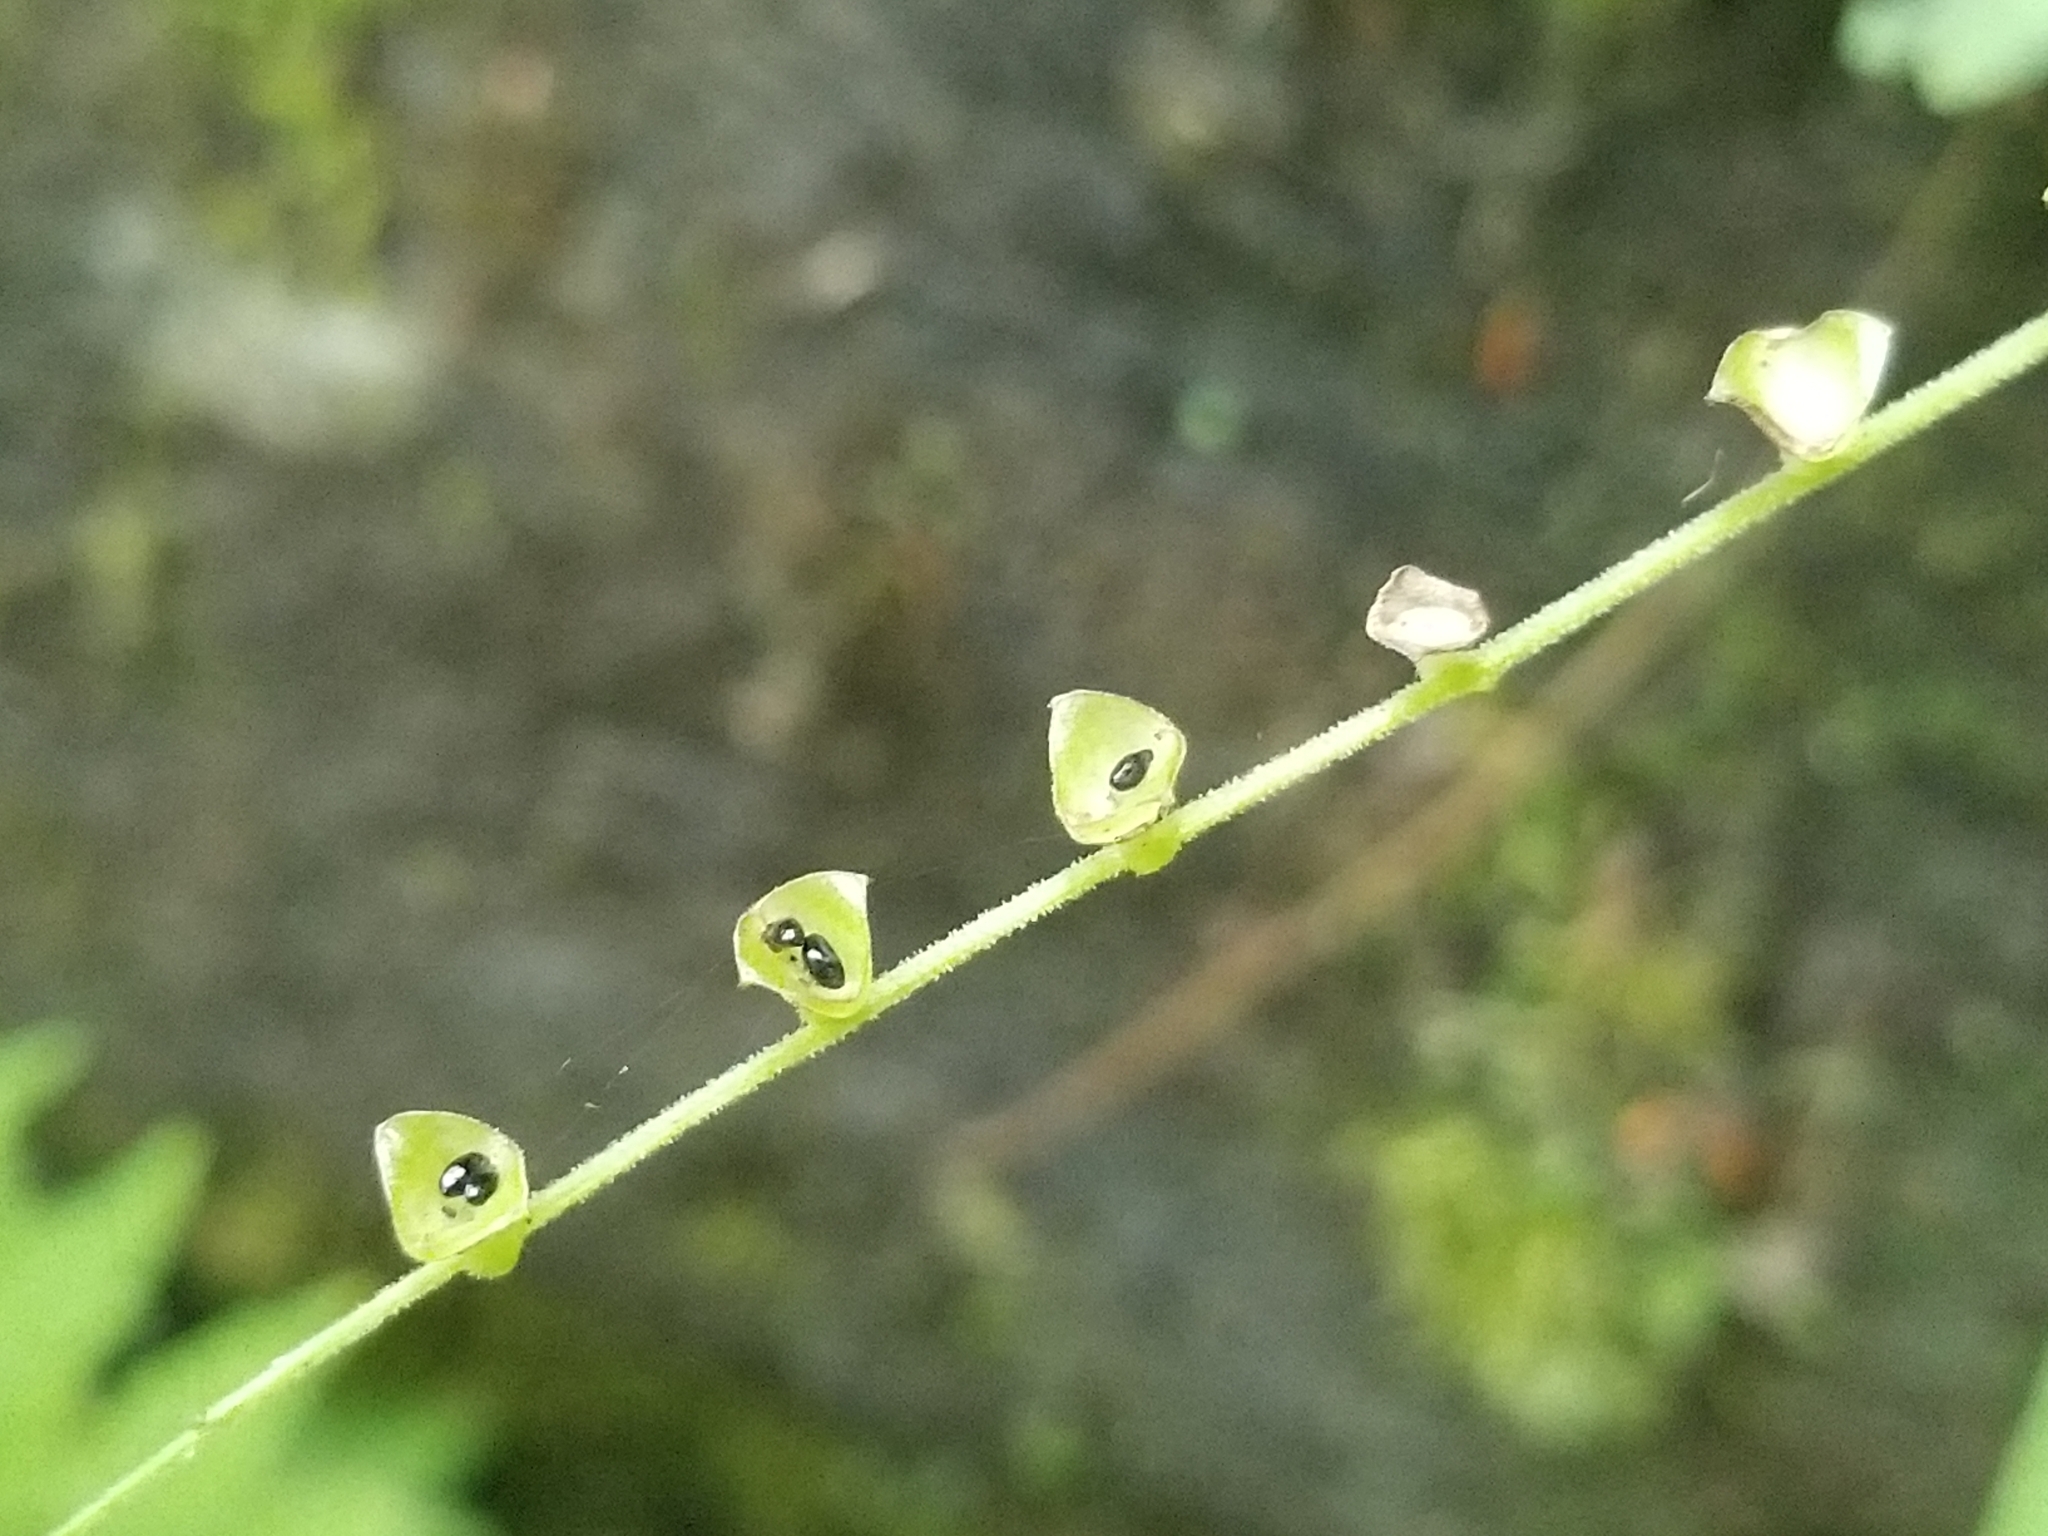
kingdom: Plantae
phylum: Tracheophyta
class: Magnoliopsida
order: Saxifragales
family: Saxifragaceae
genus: Mitella
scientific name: Mitella diphylla
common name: Coolwort
